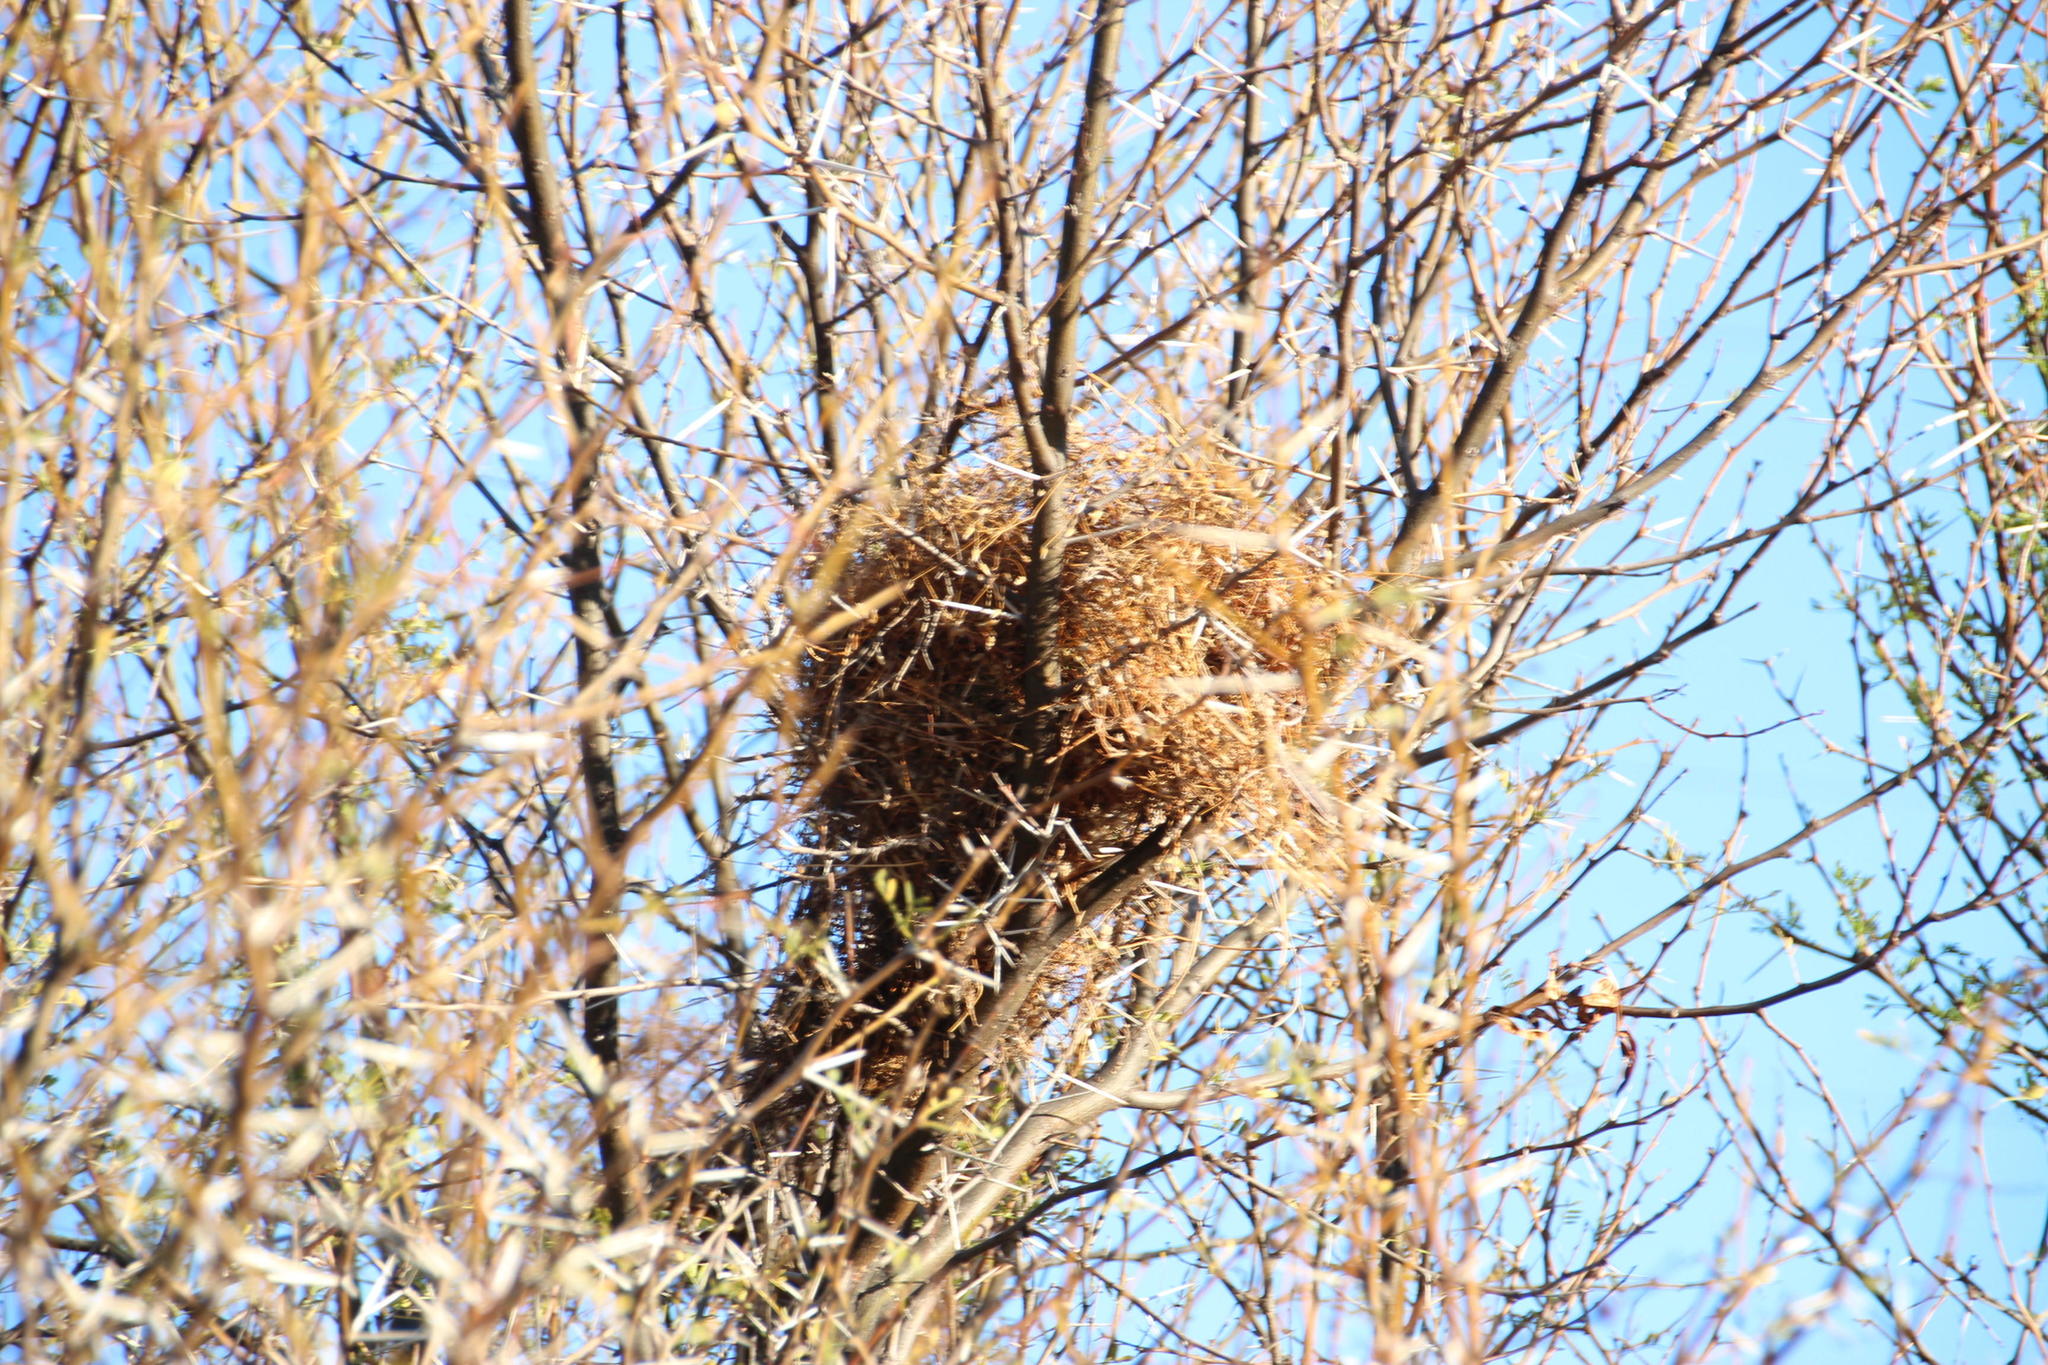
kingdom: Animalia
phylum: Chordata
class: Aves
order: Passeriformes
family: Passeridae
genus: Passer
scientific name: Passer melanurus
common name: Cape sparrow
